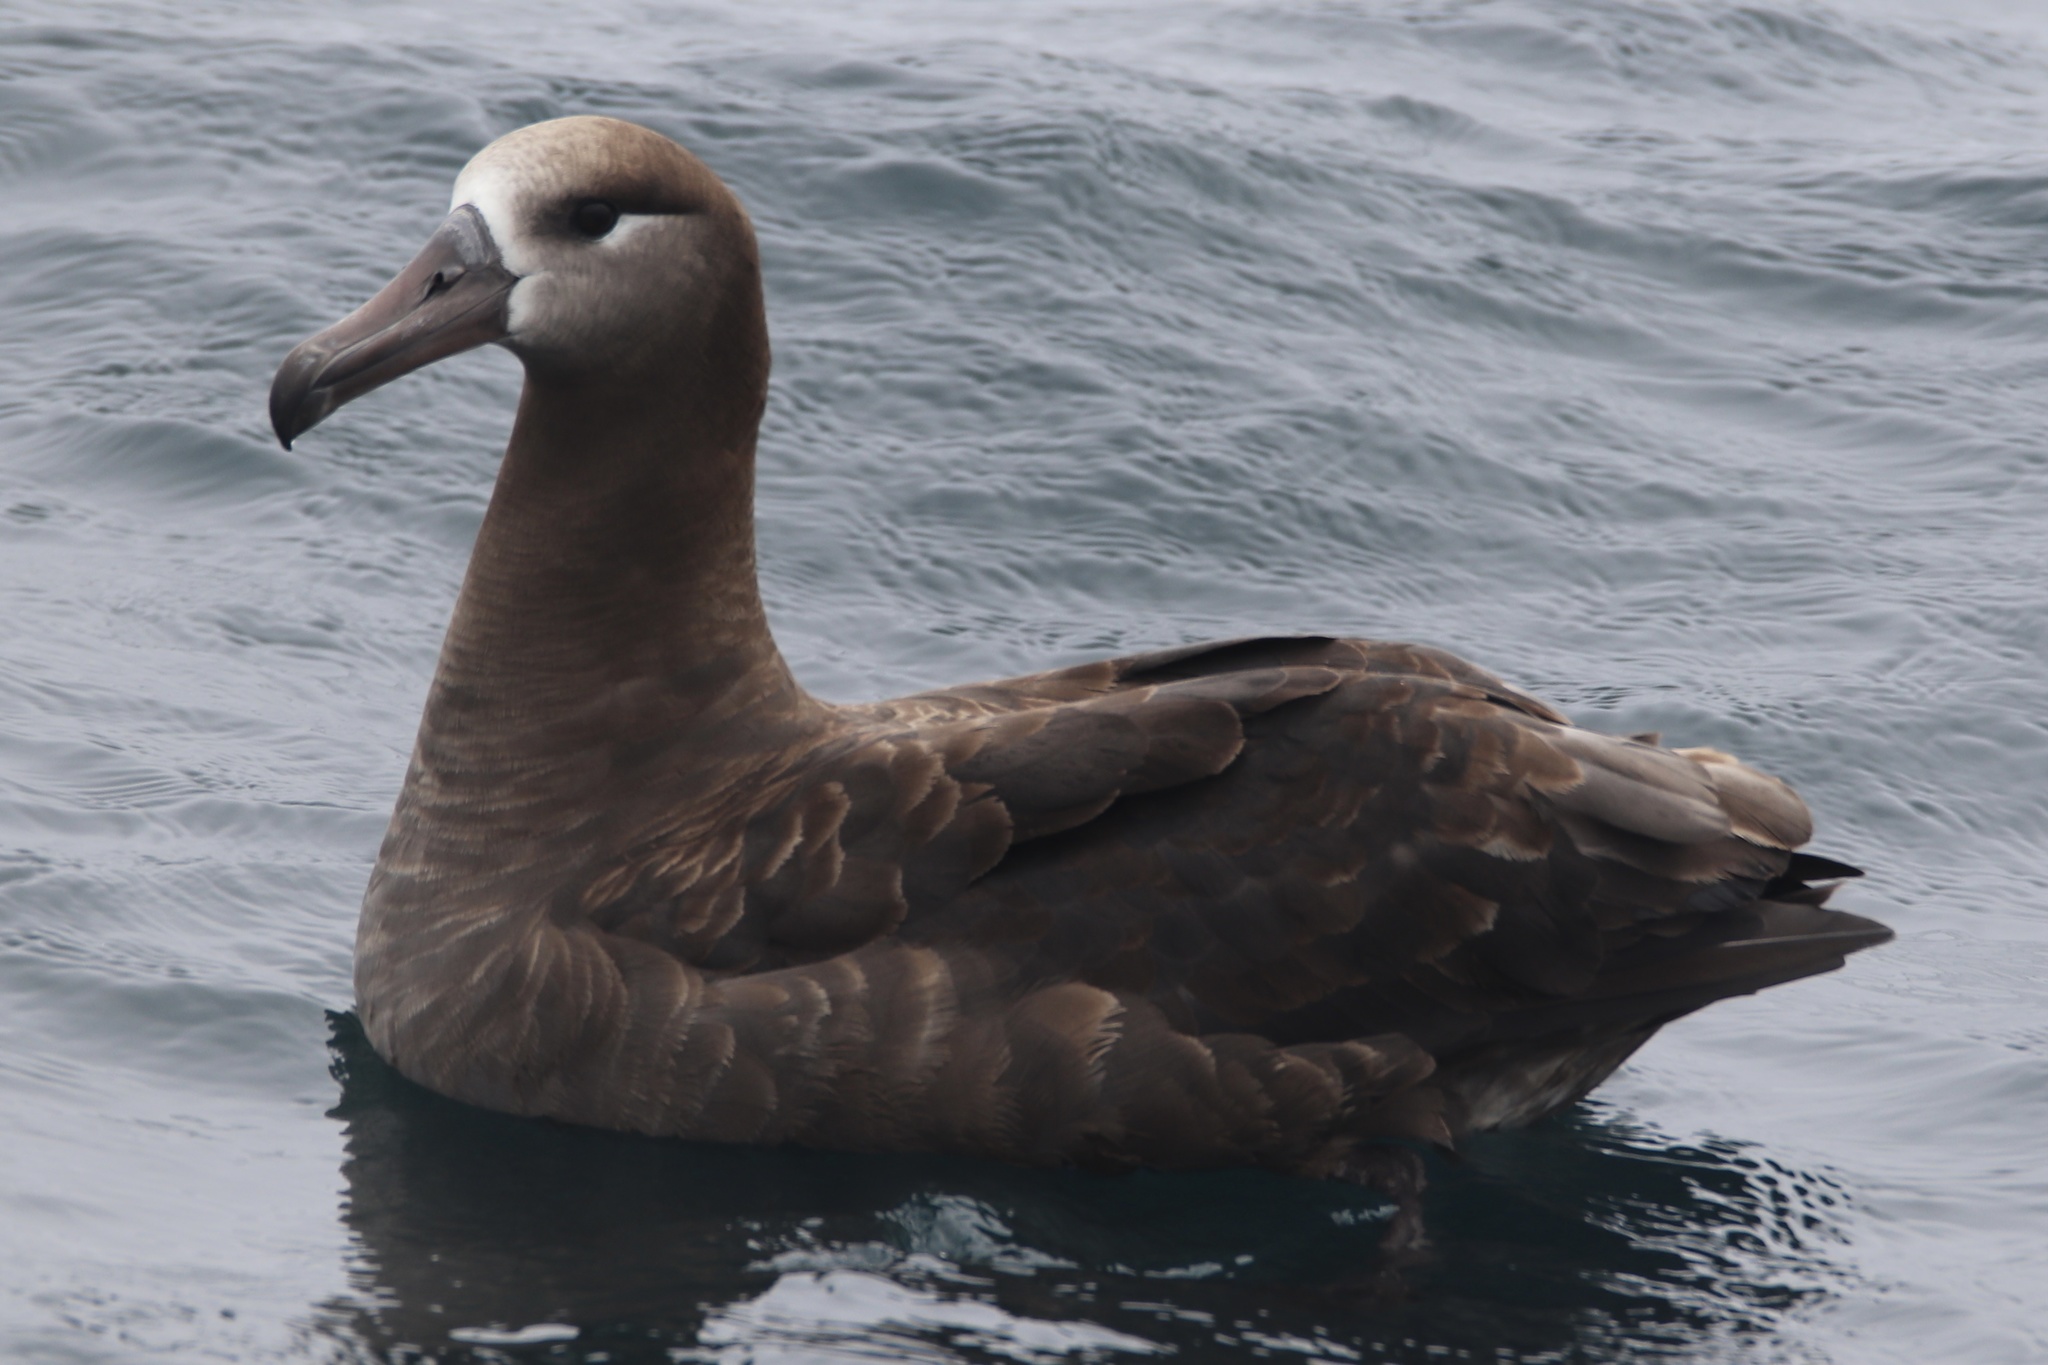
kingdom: Animalia
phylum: Chordata
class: Aves
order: Procellariiformes
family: Diomedeidae
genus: Phoebastria
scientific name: Phoebastria nigripes
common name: Black-footed albatross
